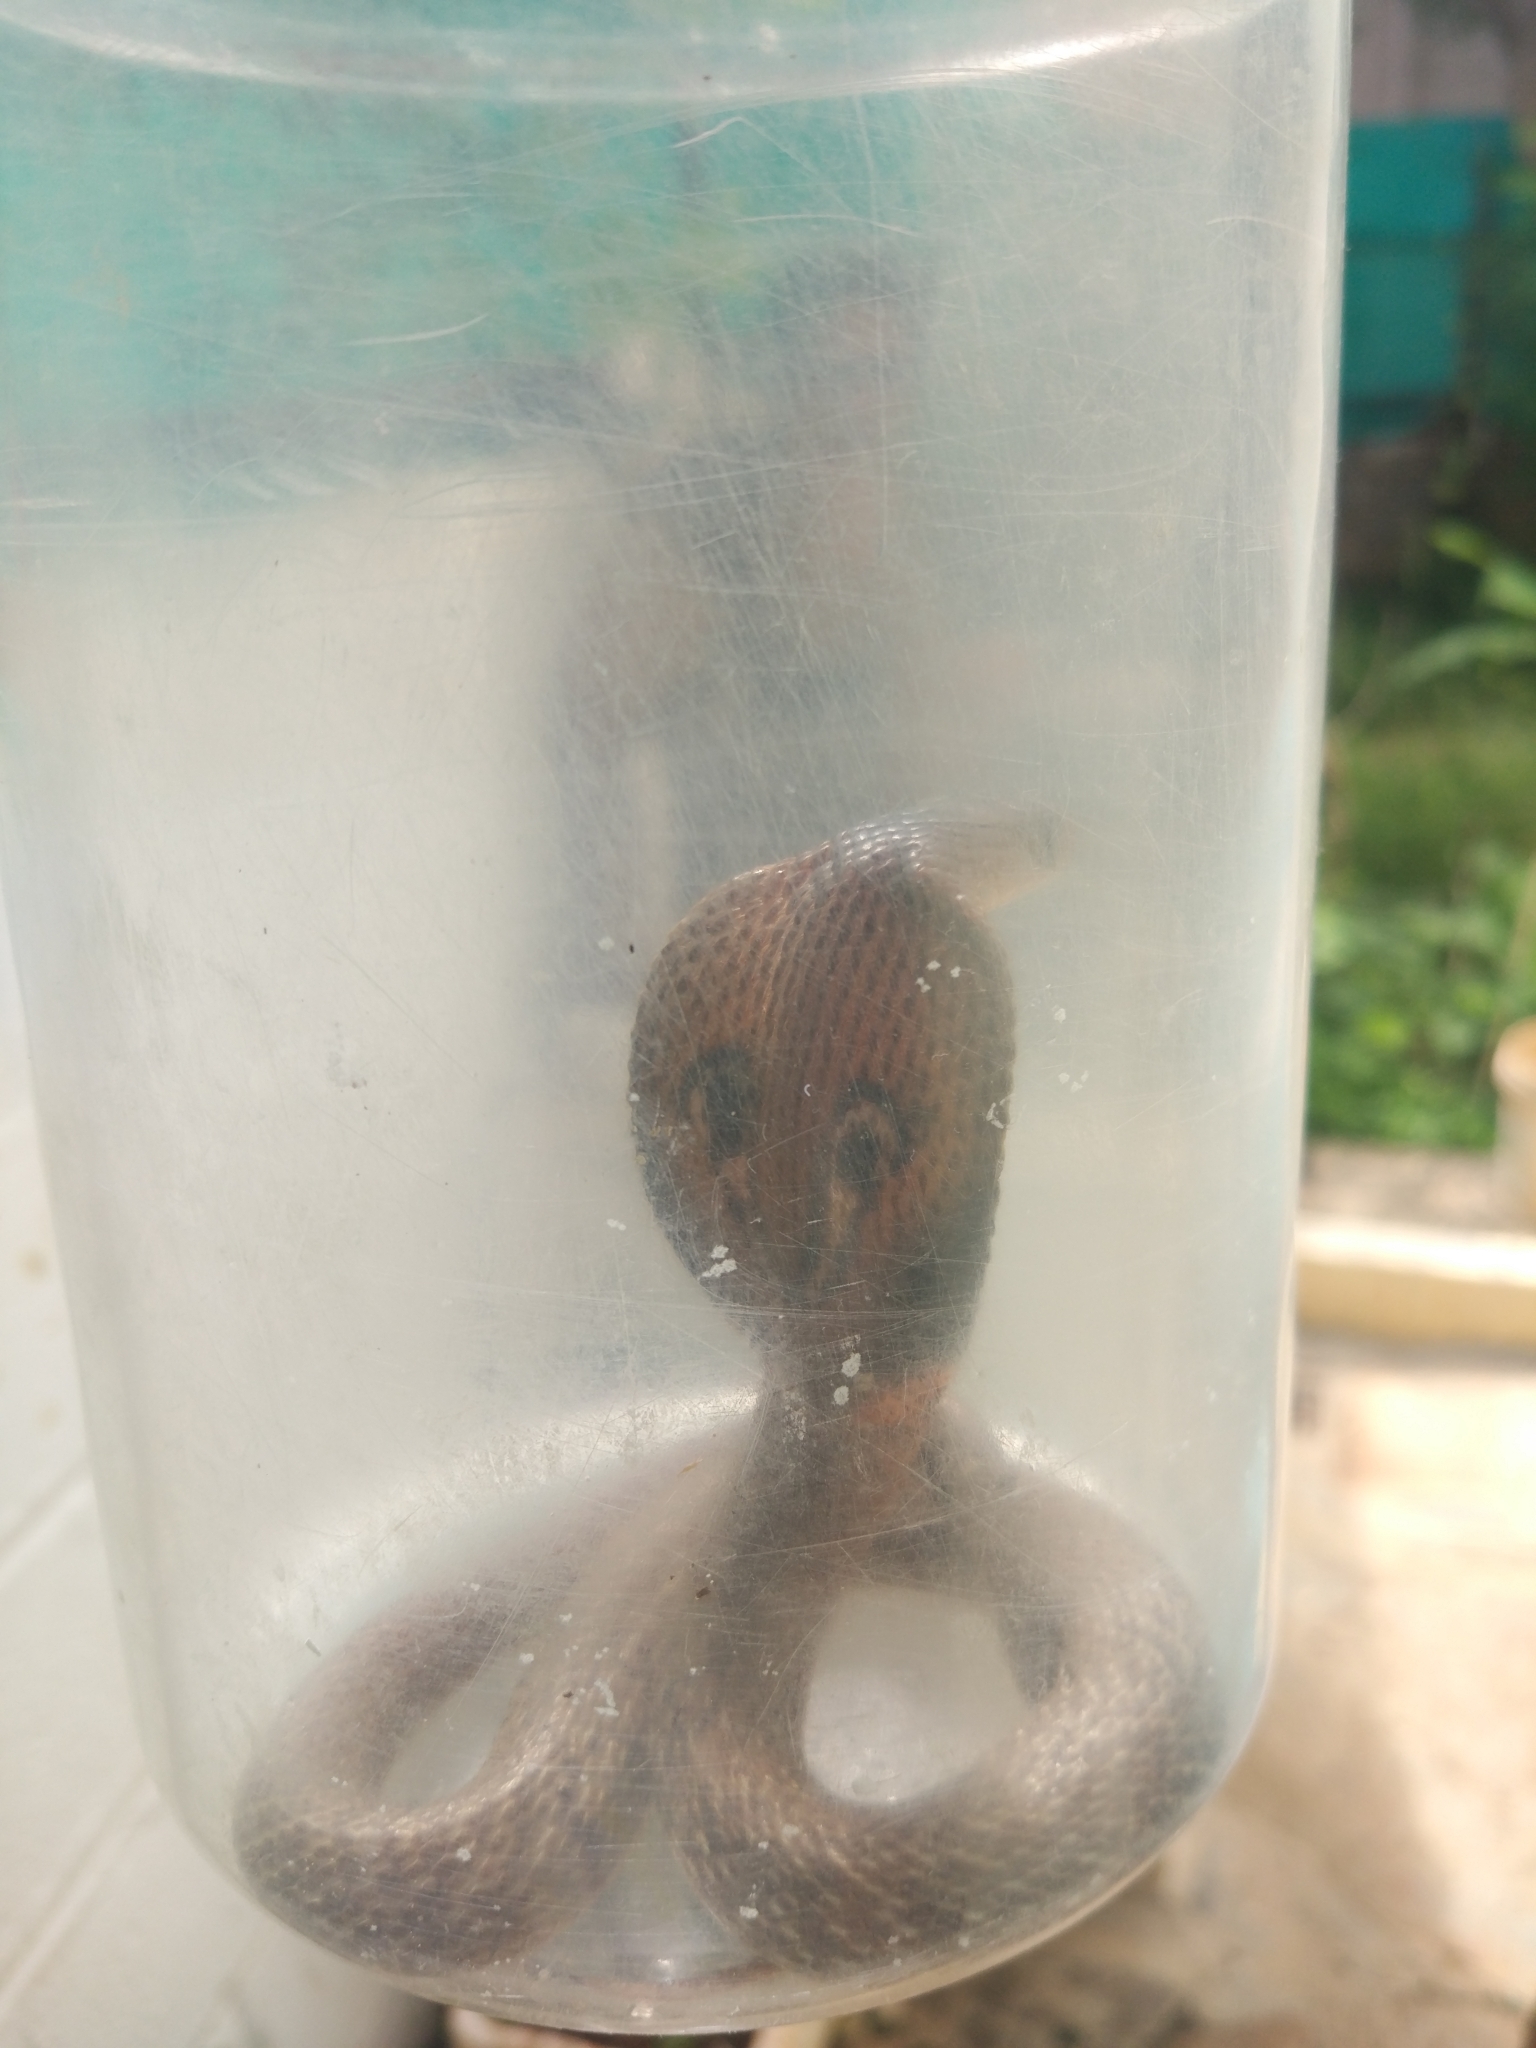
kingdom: Animalia
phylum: Chordata
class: Squamata
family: Elapidae
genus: Naja
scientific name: Naja naja
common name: Indian cobra
